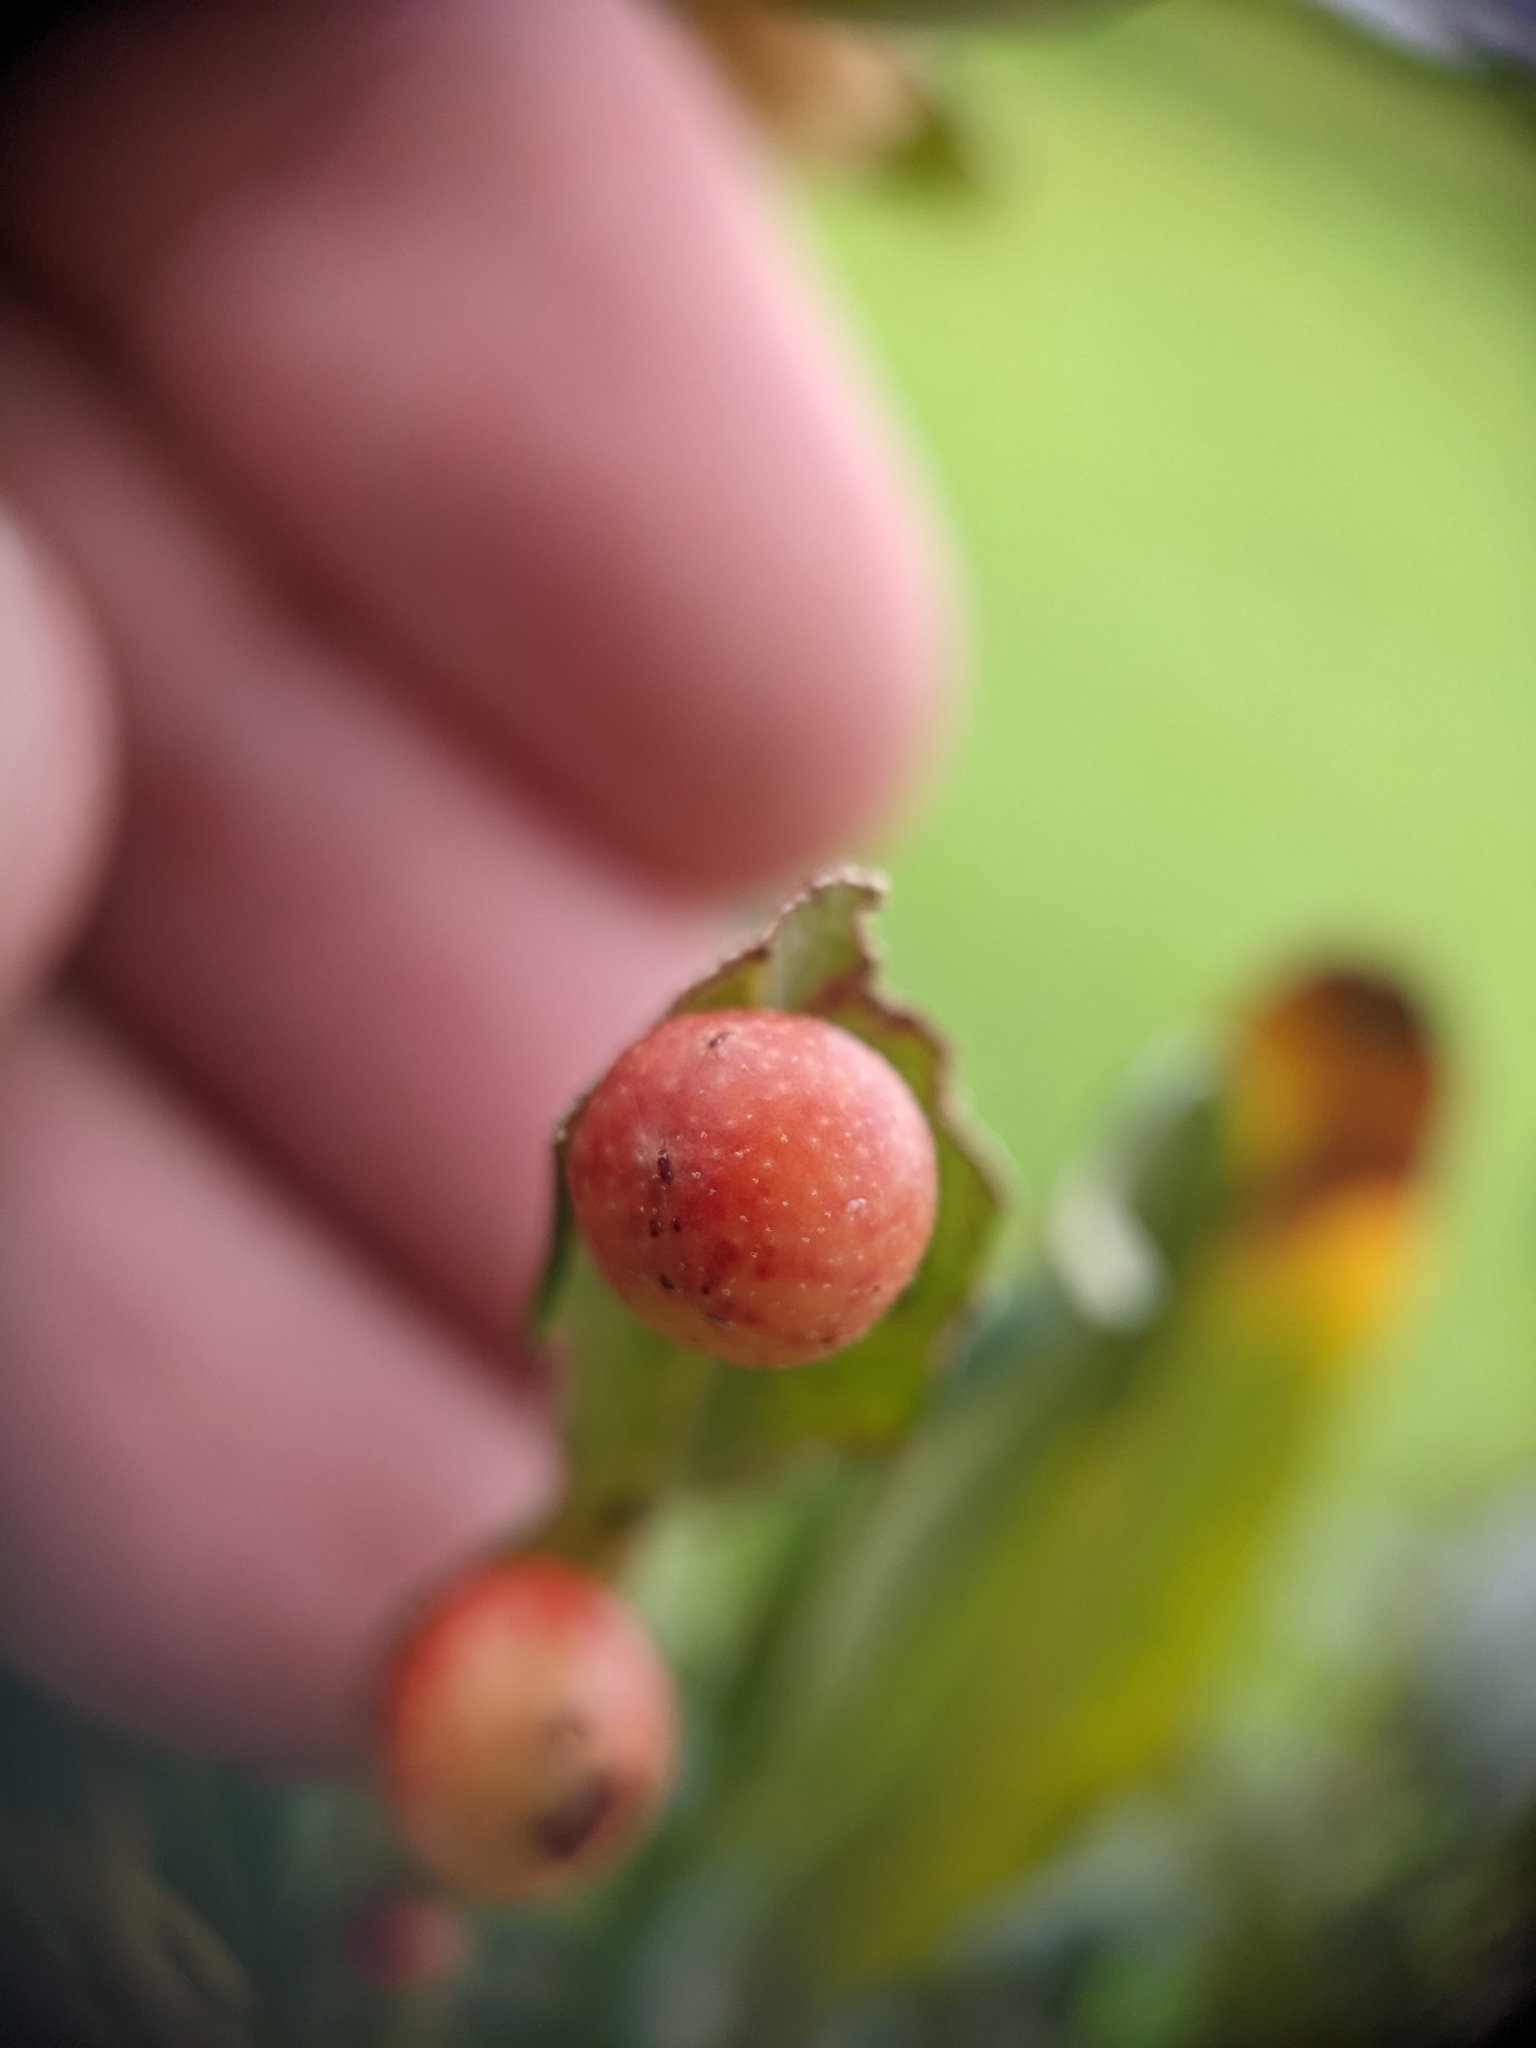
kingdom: Animalia
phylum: Arthropoda
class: Insecta
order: Hymenoptera
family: Cynipidae
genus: Belonocnema
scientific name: Belonocnema kinseyi
